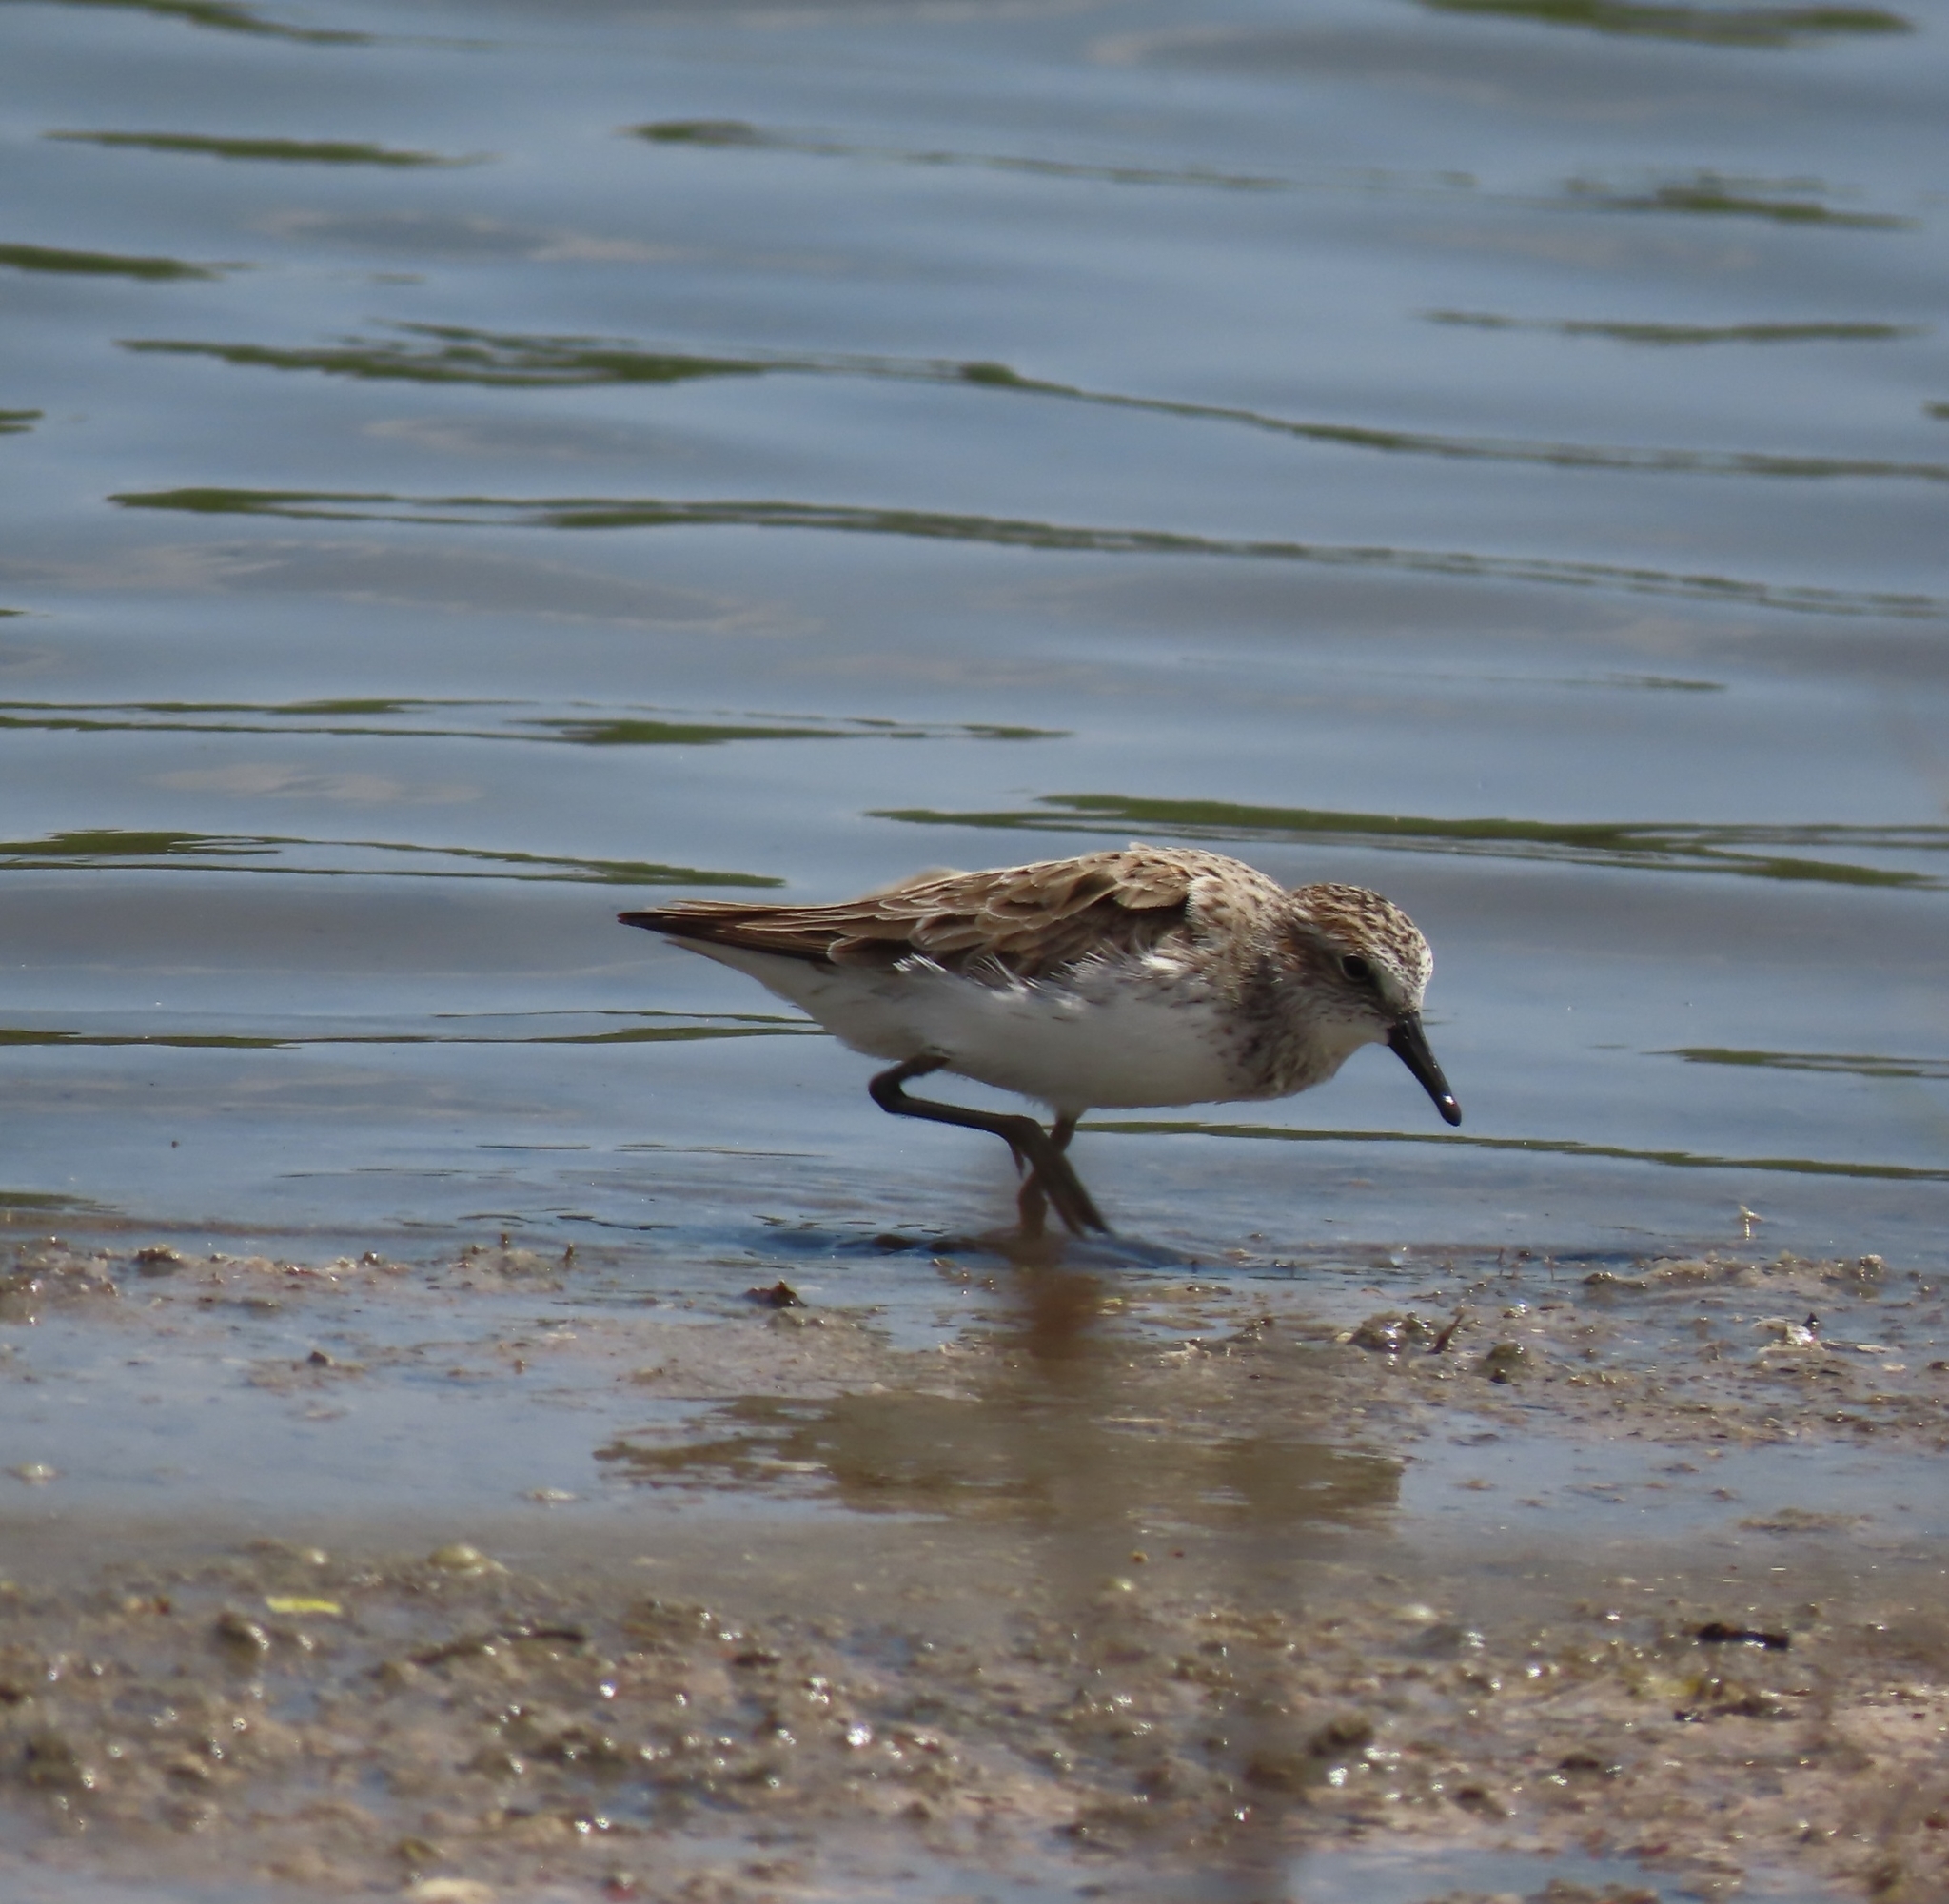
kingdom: Animalia
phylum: Chordata
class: Aves
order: Charadriiformes
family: Scolopacidae
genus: Calidris
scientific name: Calidris pusilla
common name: Semipalmated sandpiper
